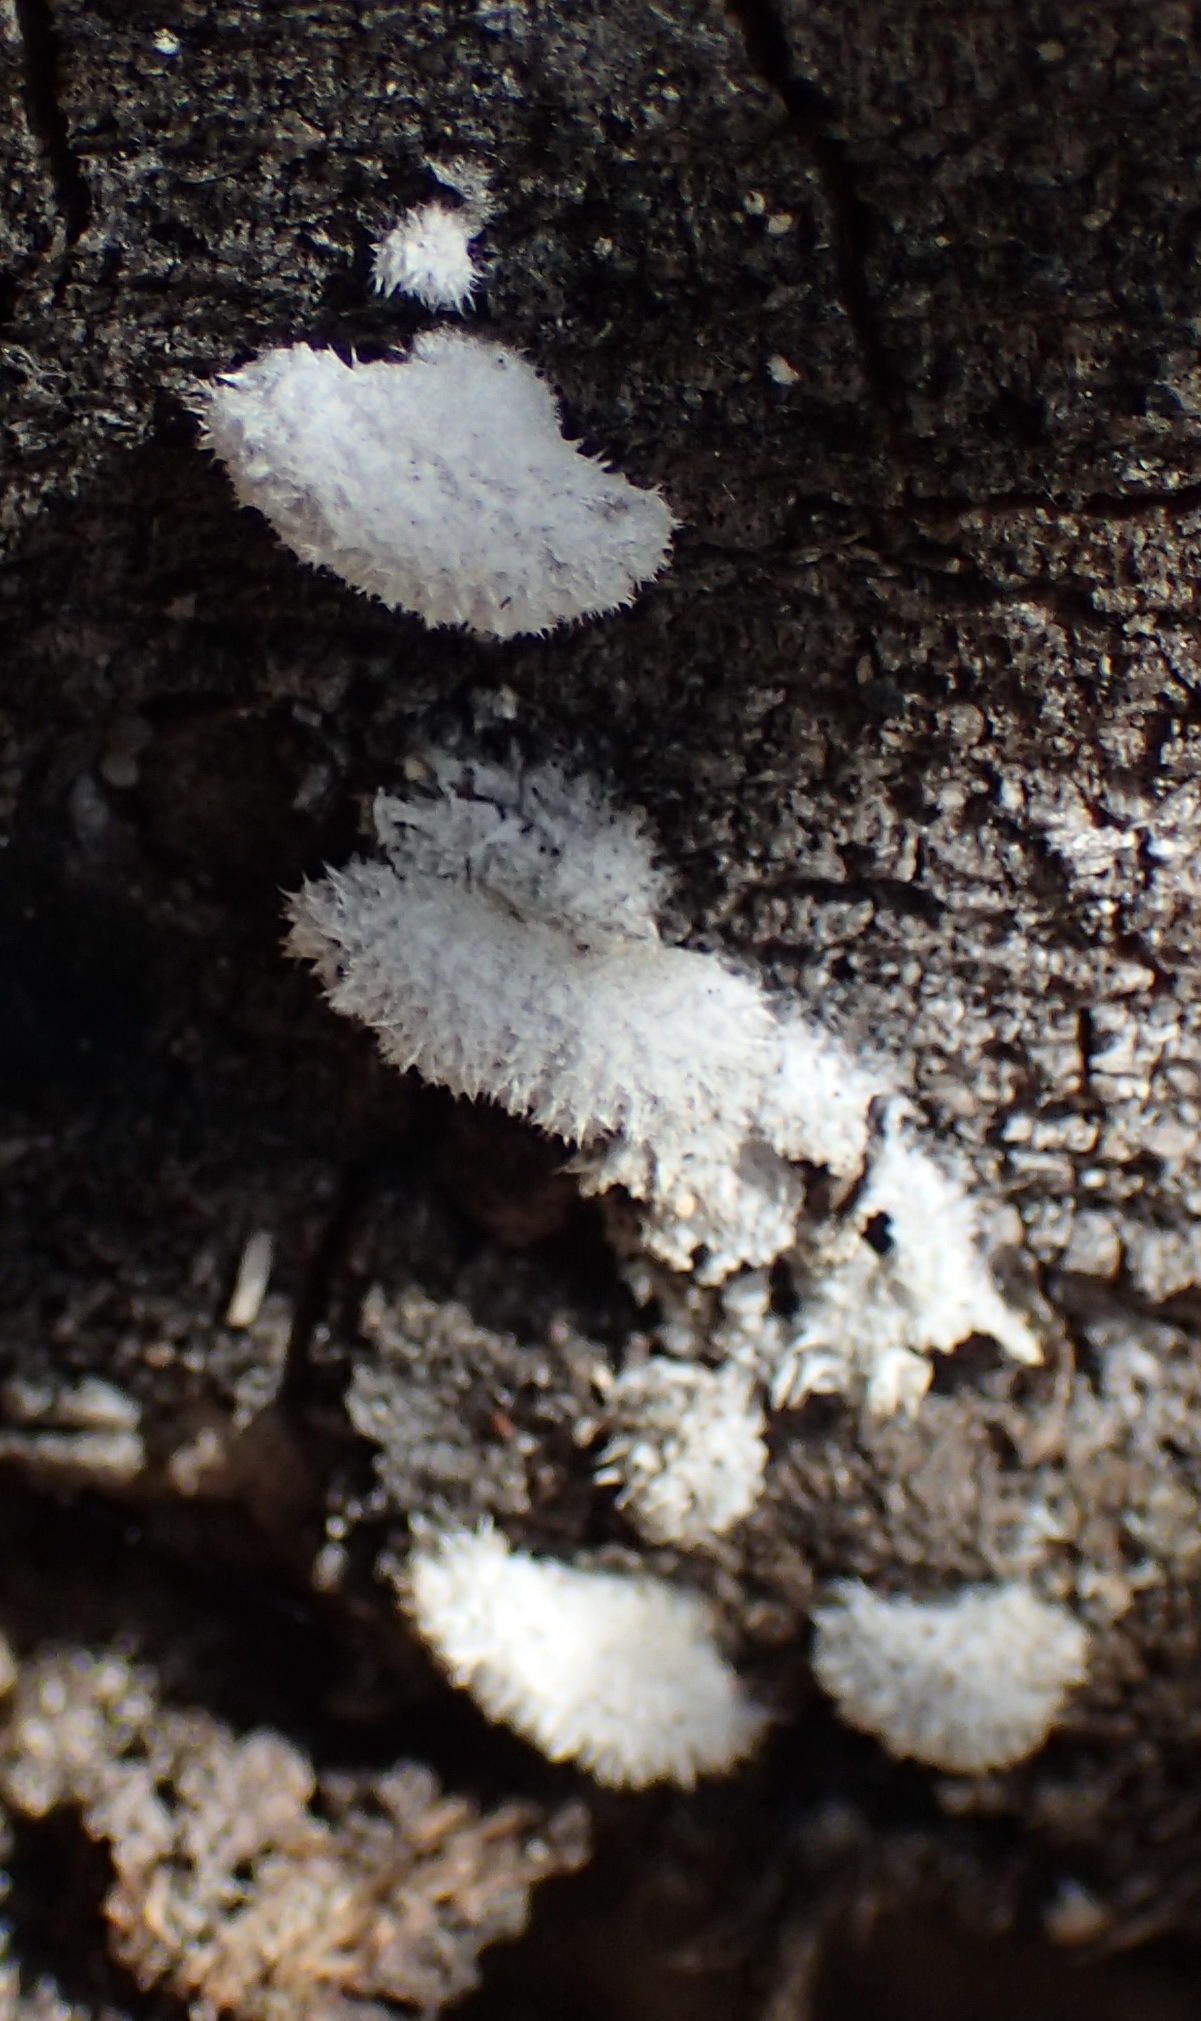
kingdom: Fungi
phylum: Basidiomycota
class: Agaricomycetes
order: Agaricales
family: Schizophyllaceae
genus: Schizophyllum
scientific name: Schizophyllum commune
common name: Common porecrust
